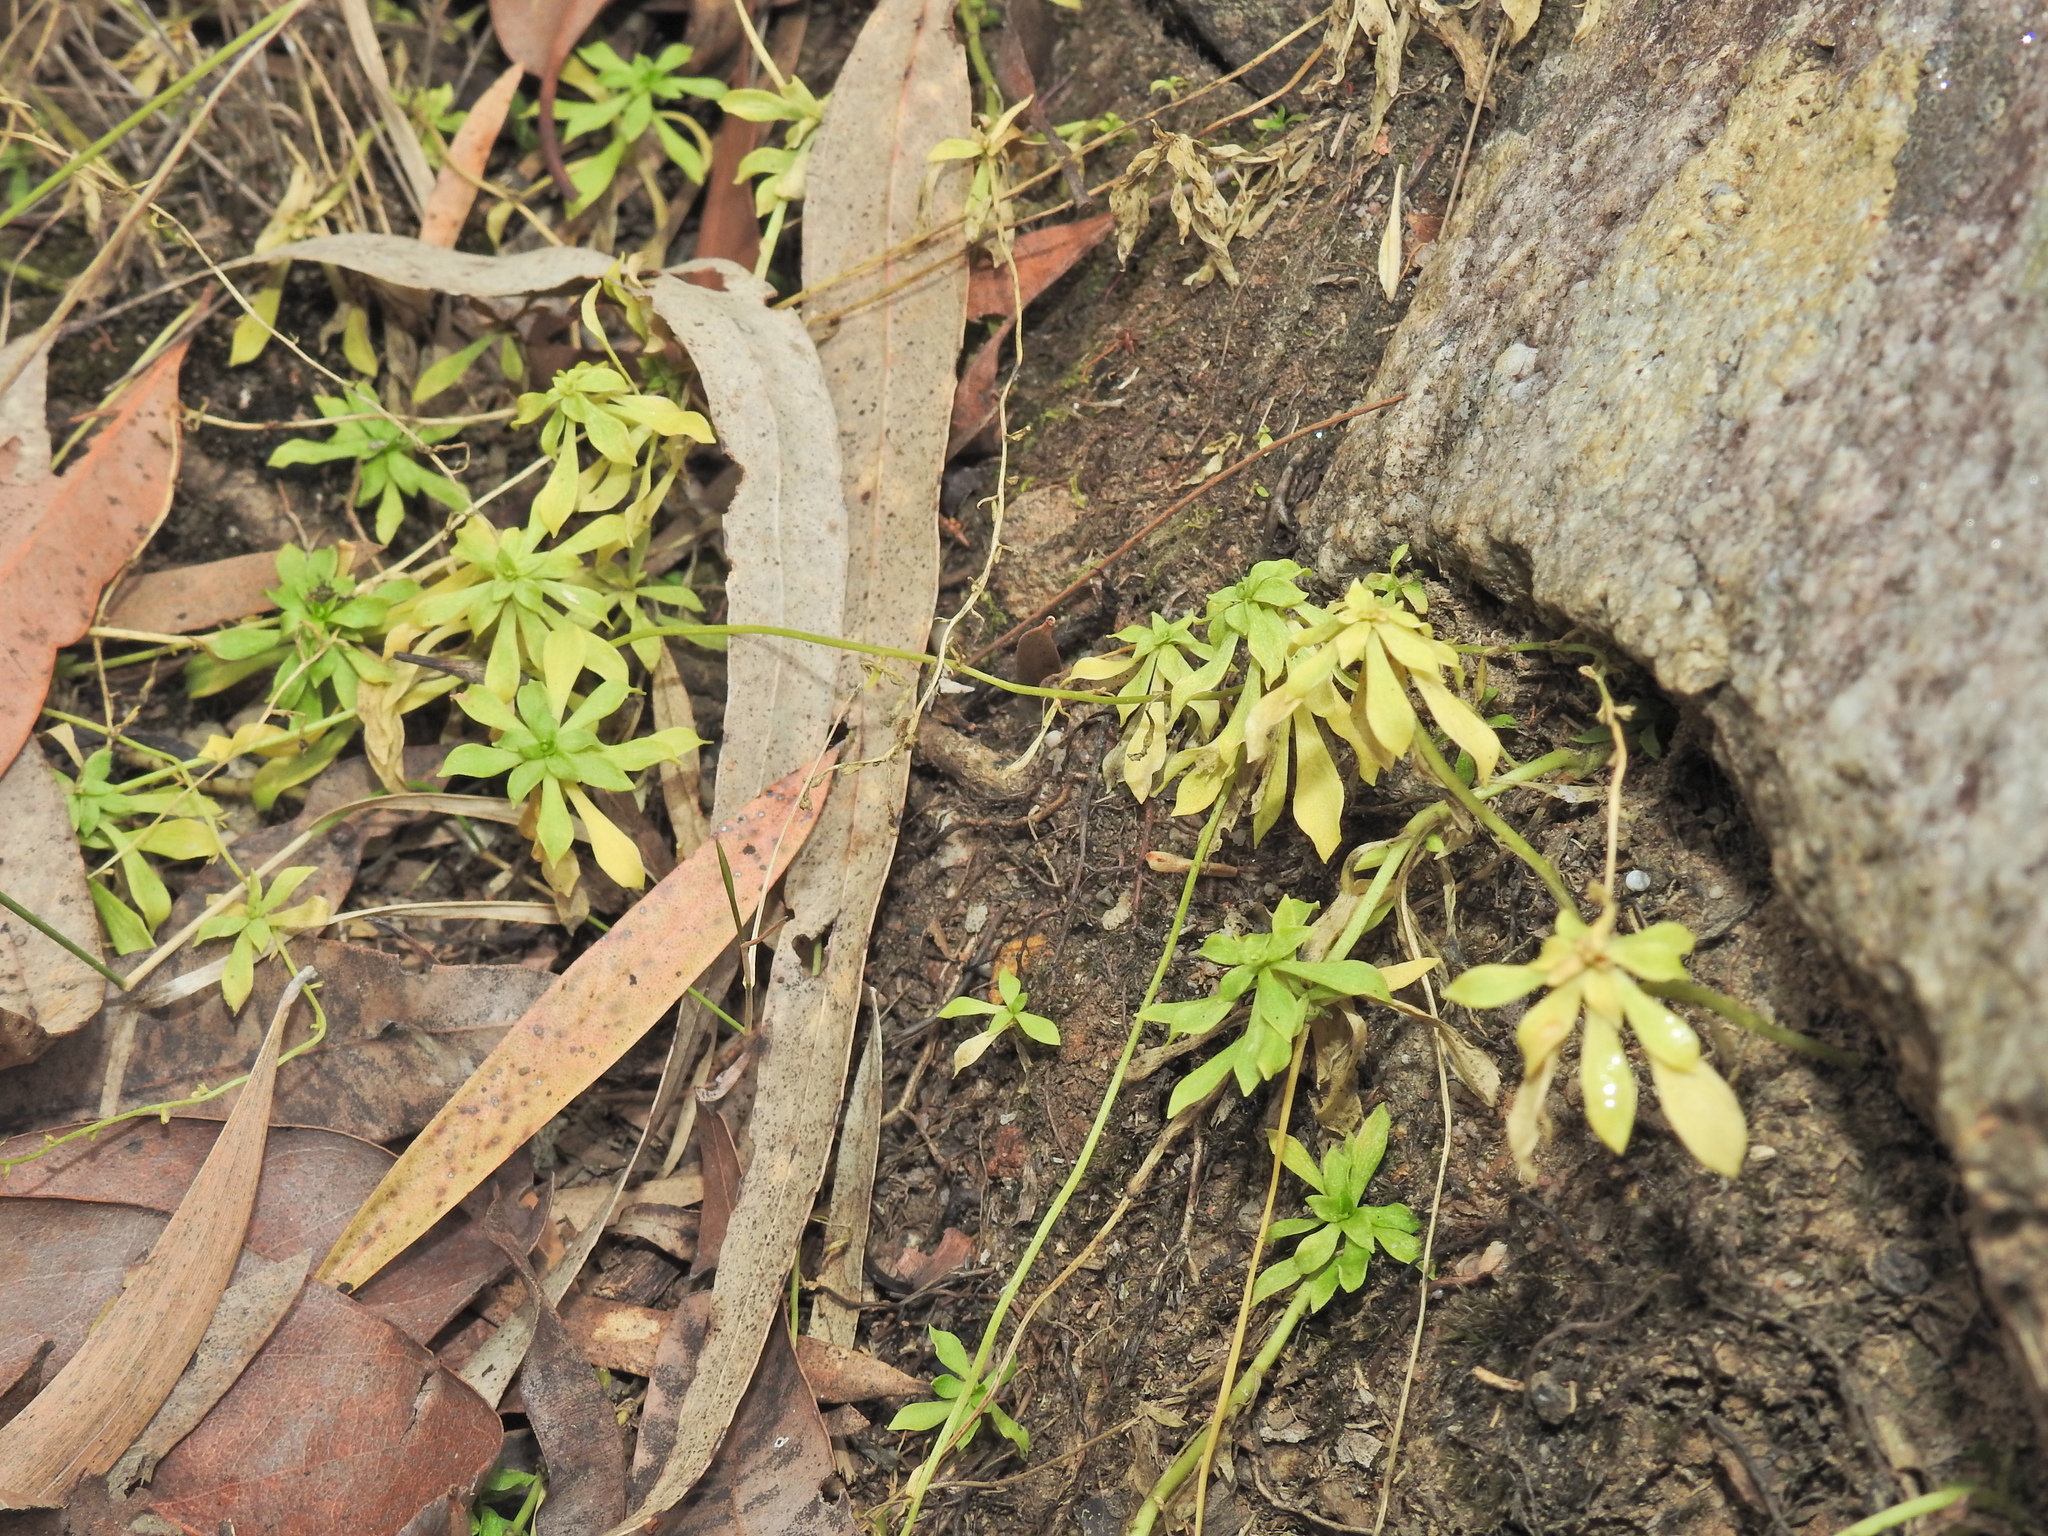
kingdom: Plantae
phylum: Tracheophyta
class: Magnoliopsida
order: Asterales
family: Stylidiaceae
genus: Stylidium
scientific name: Stylidium debile
